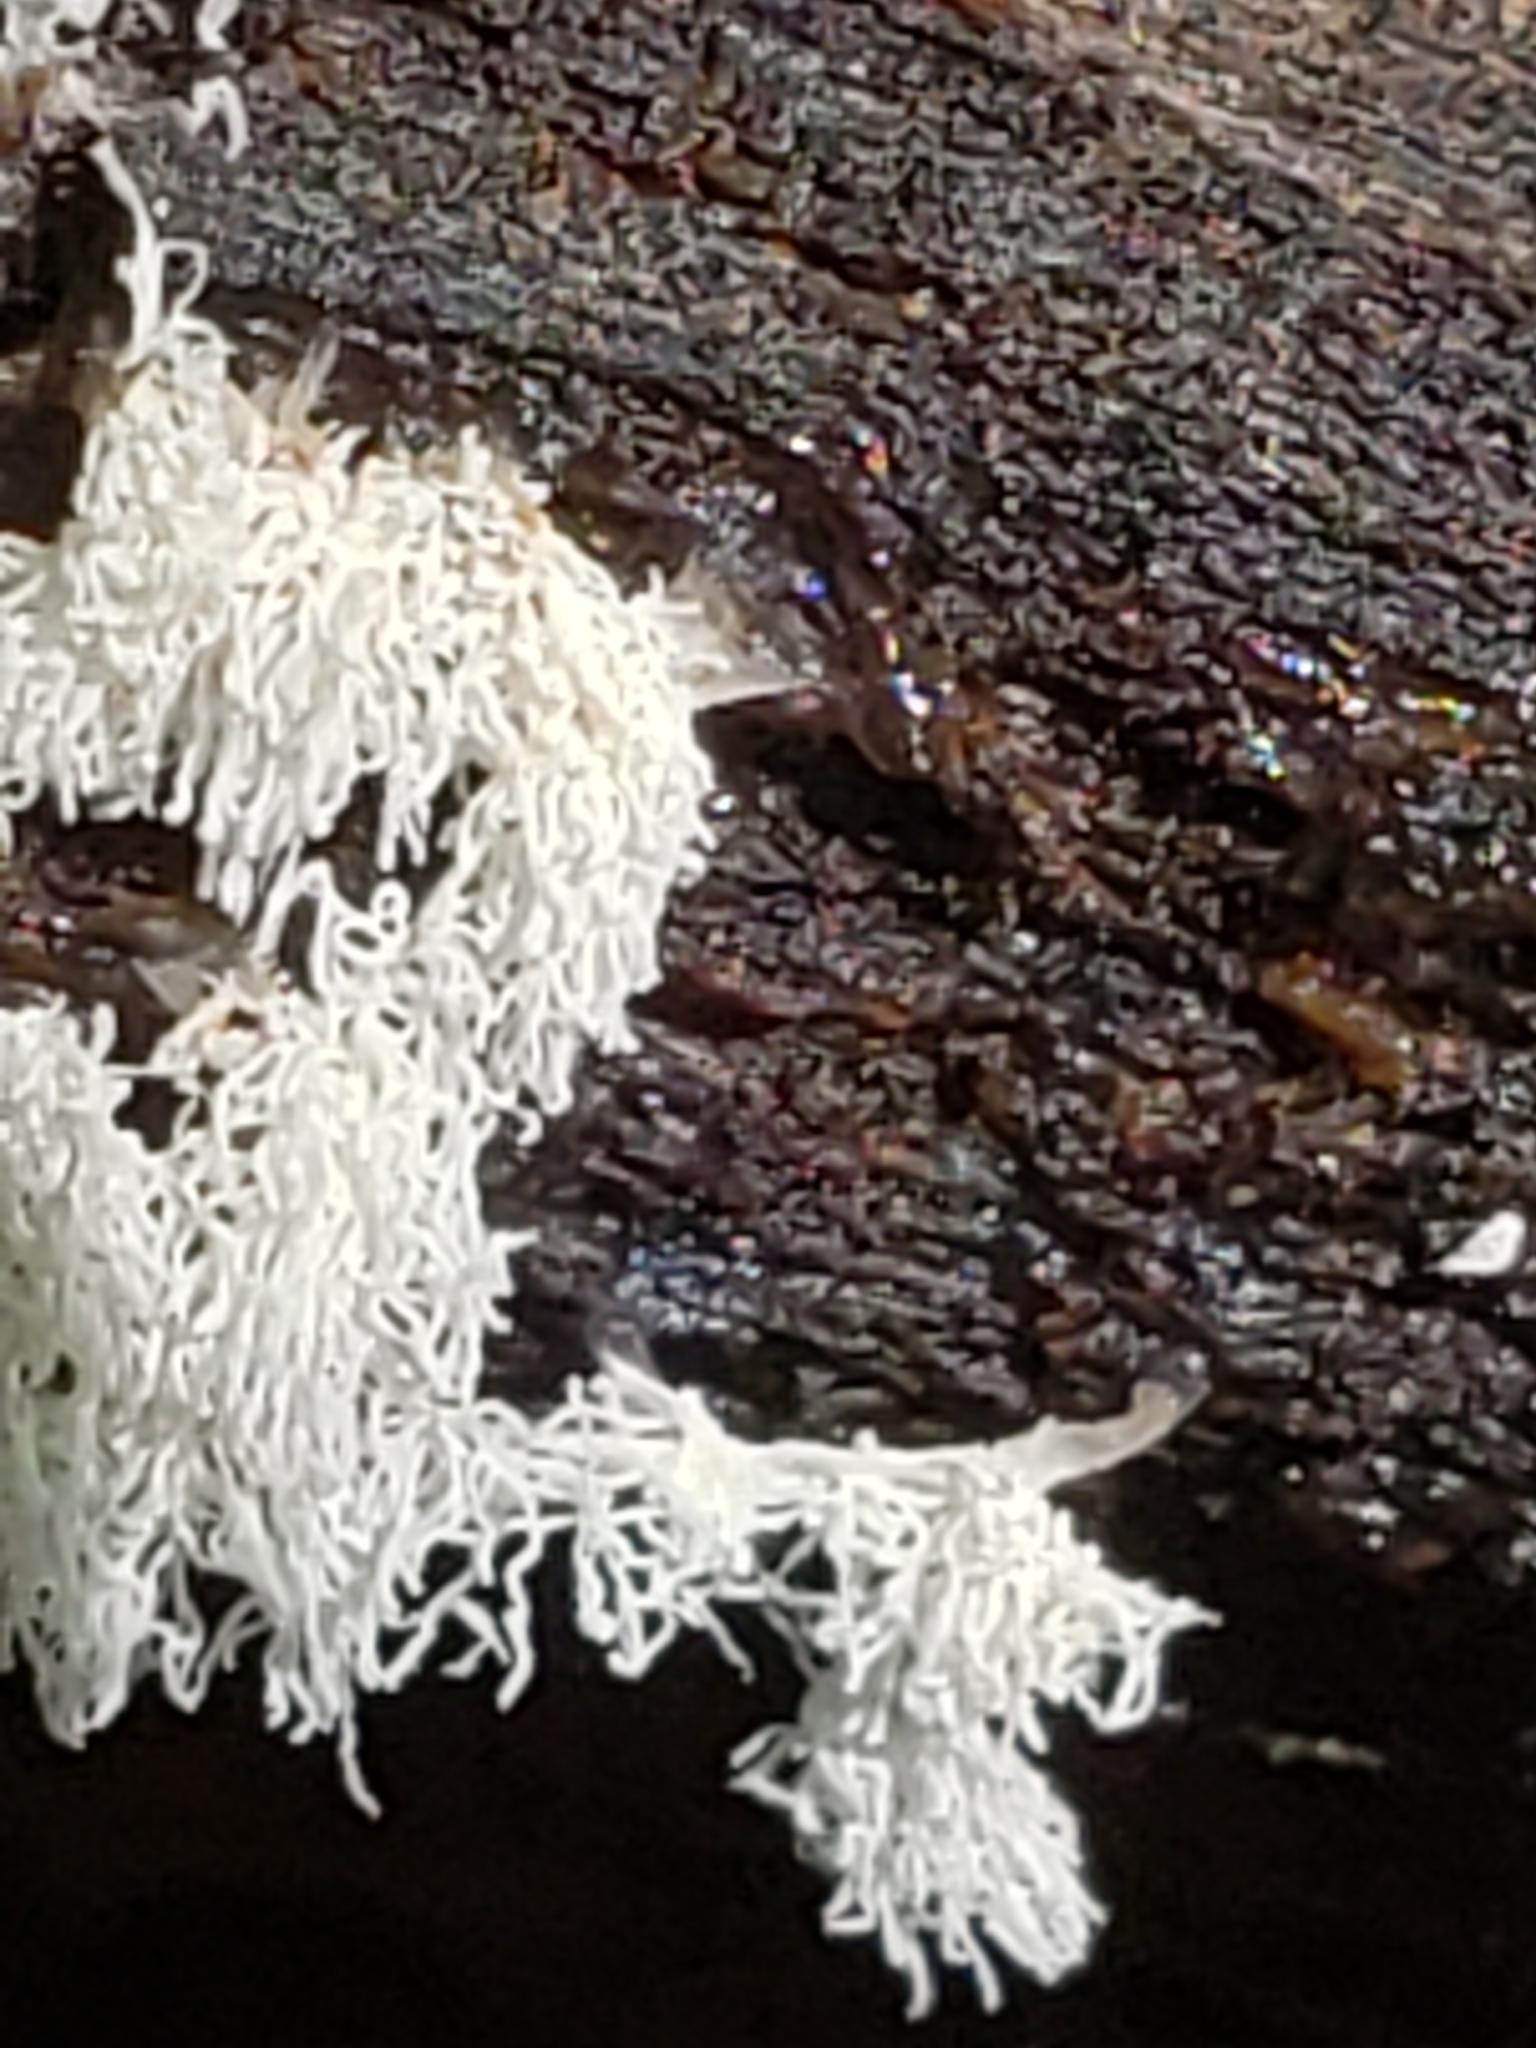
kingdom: Protozoa
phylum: Mycetozoa
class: Protosteliomycetes
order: Ceratiomyxales
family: Ceratiomyxaceae
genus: Ceratiomyxa
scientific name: Ceratiomyxa fruticulosa
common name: Honeycomb coral slime mold
